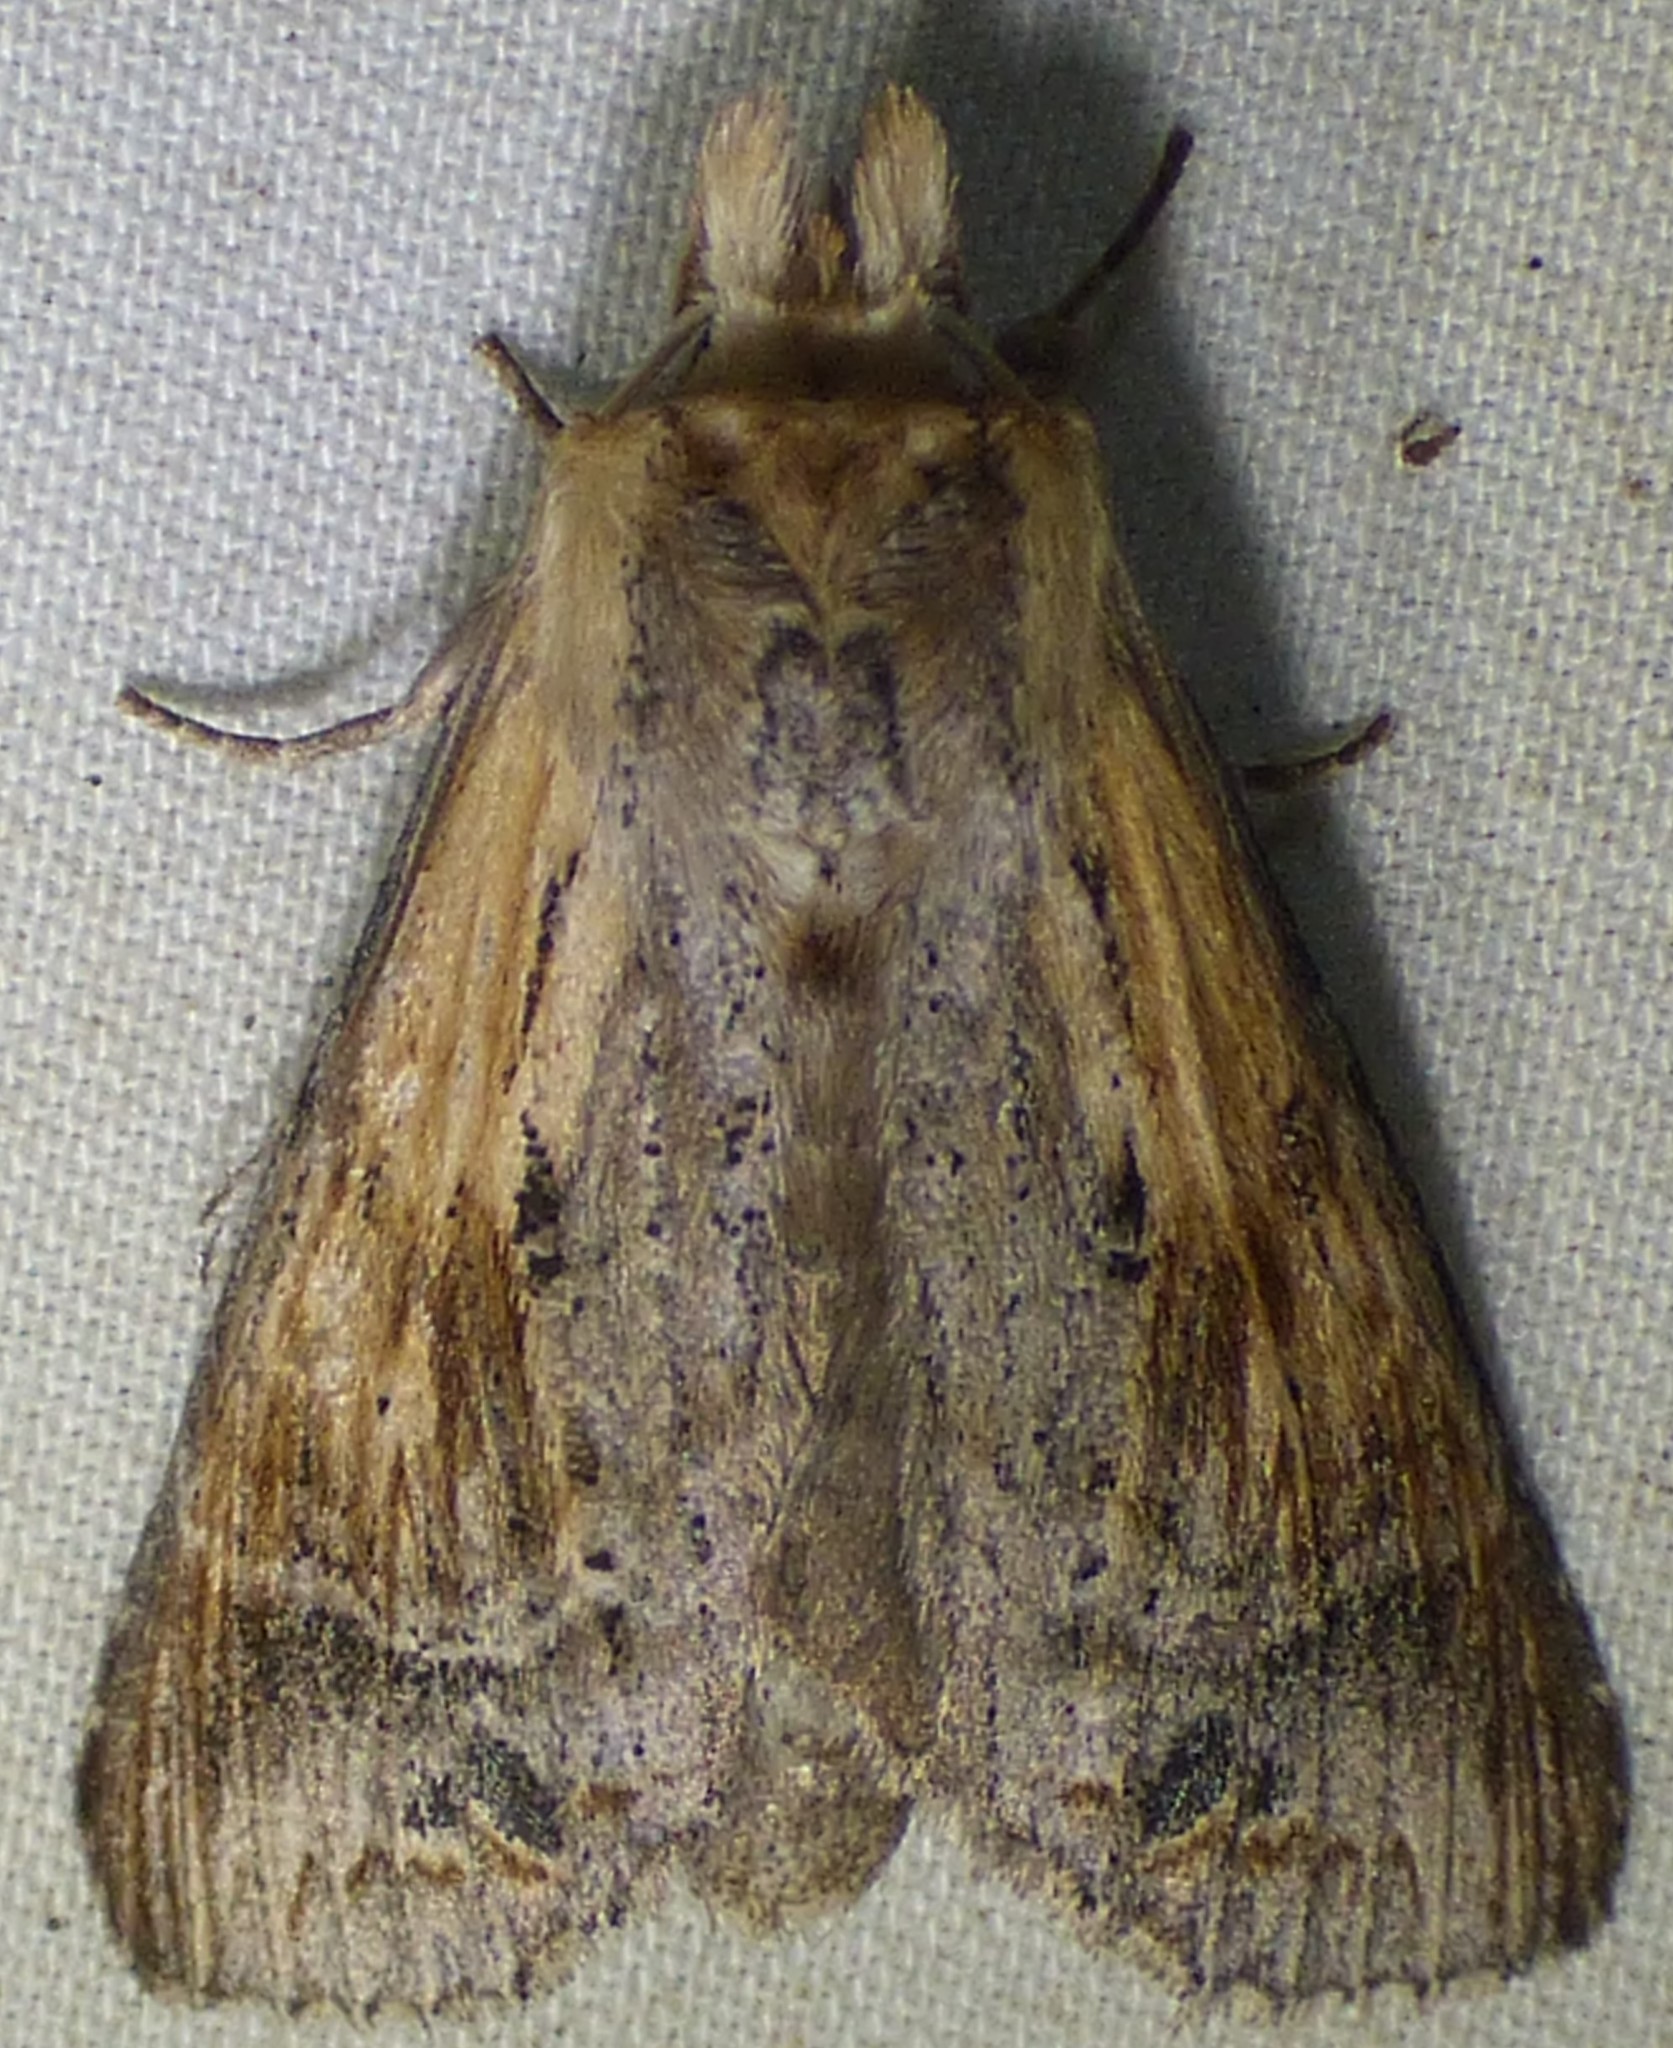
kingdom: Animalia
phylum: Arthropoda
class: Insecta
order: Lepidoptera
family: Notodontidae
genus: Dasylophia
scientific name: Dasylophia anguina
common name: Black-spotted prominent
